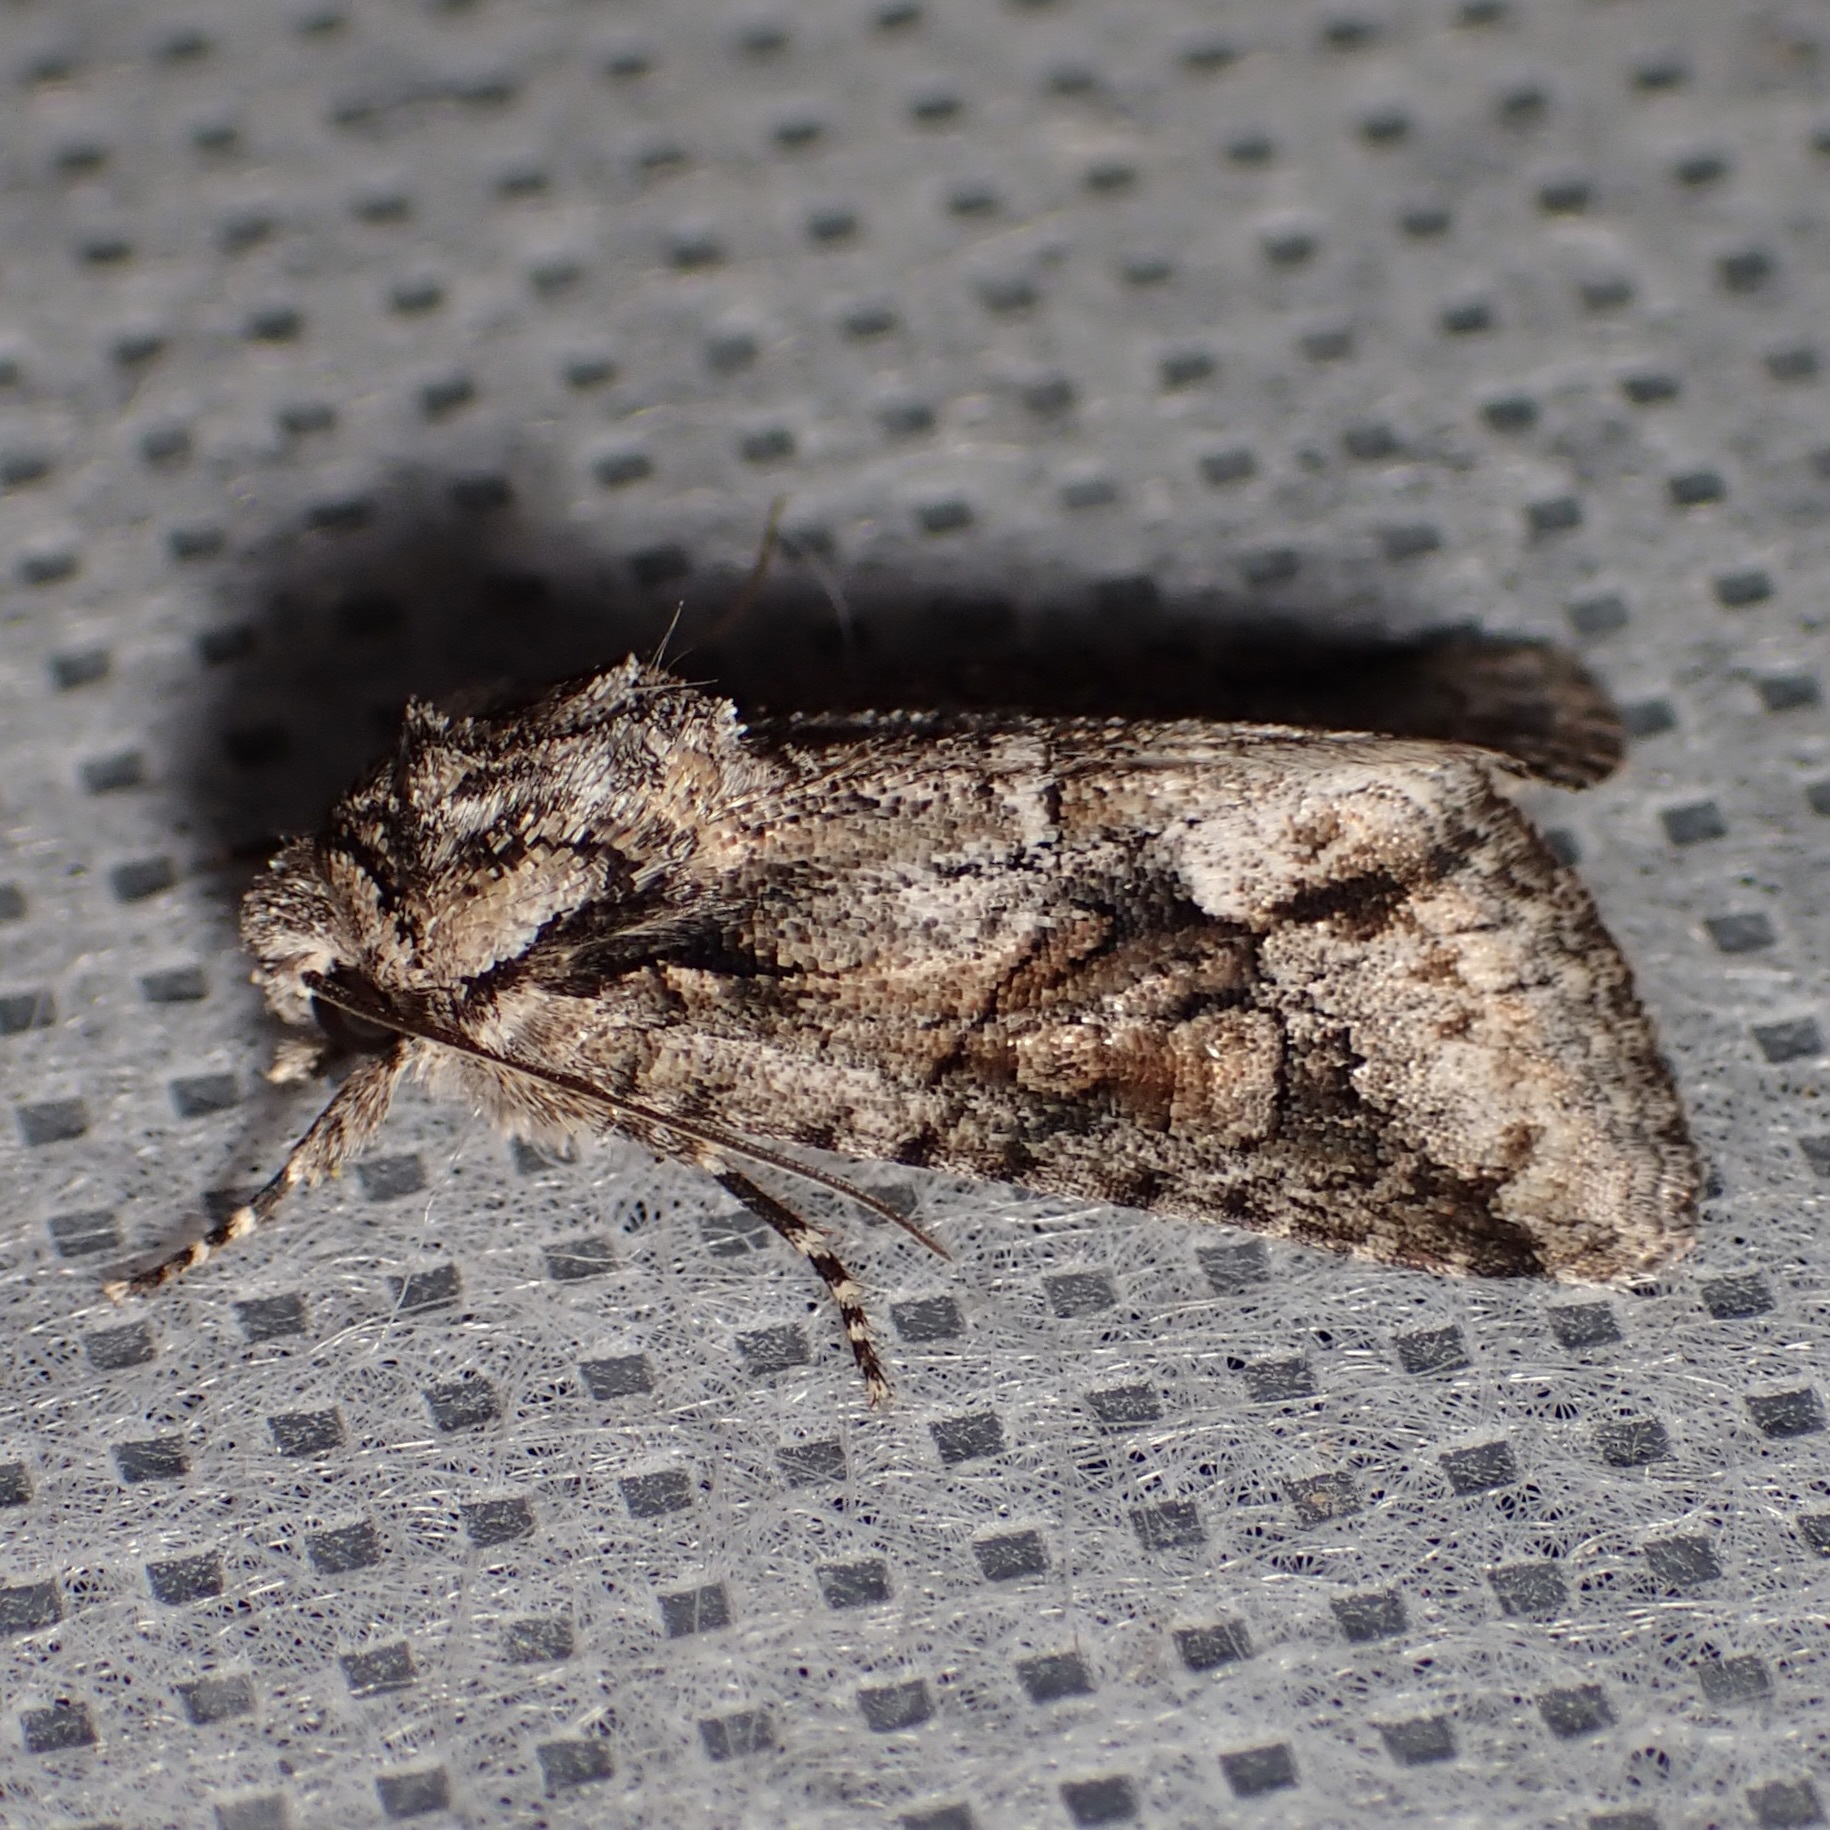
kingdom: Animalia
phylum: Arthropoda
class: Insecta
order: Lepidoptera
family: Noctuidae
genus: Lacinipolia
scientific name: Lacinipolia martini
